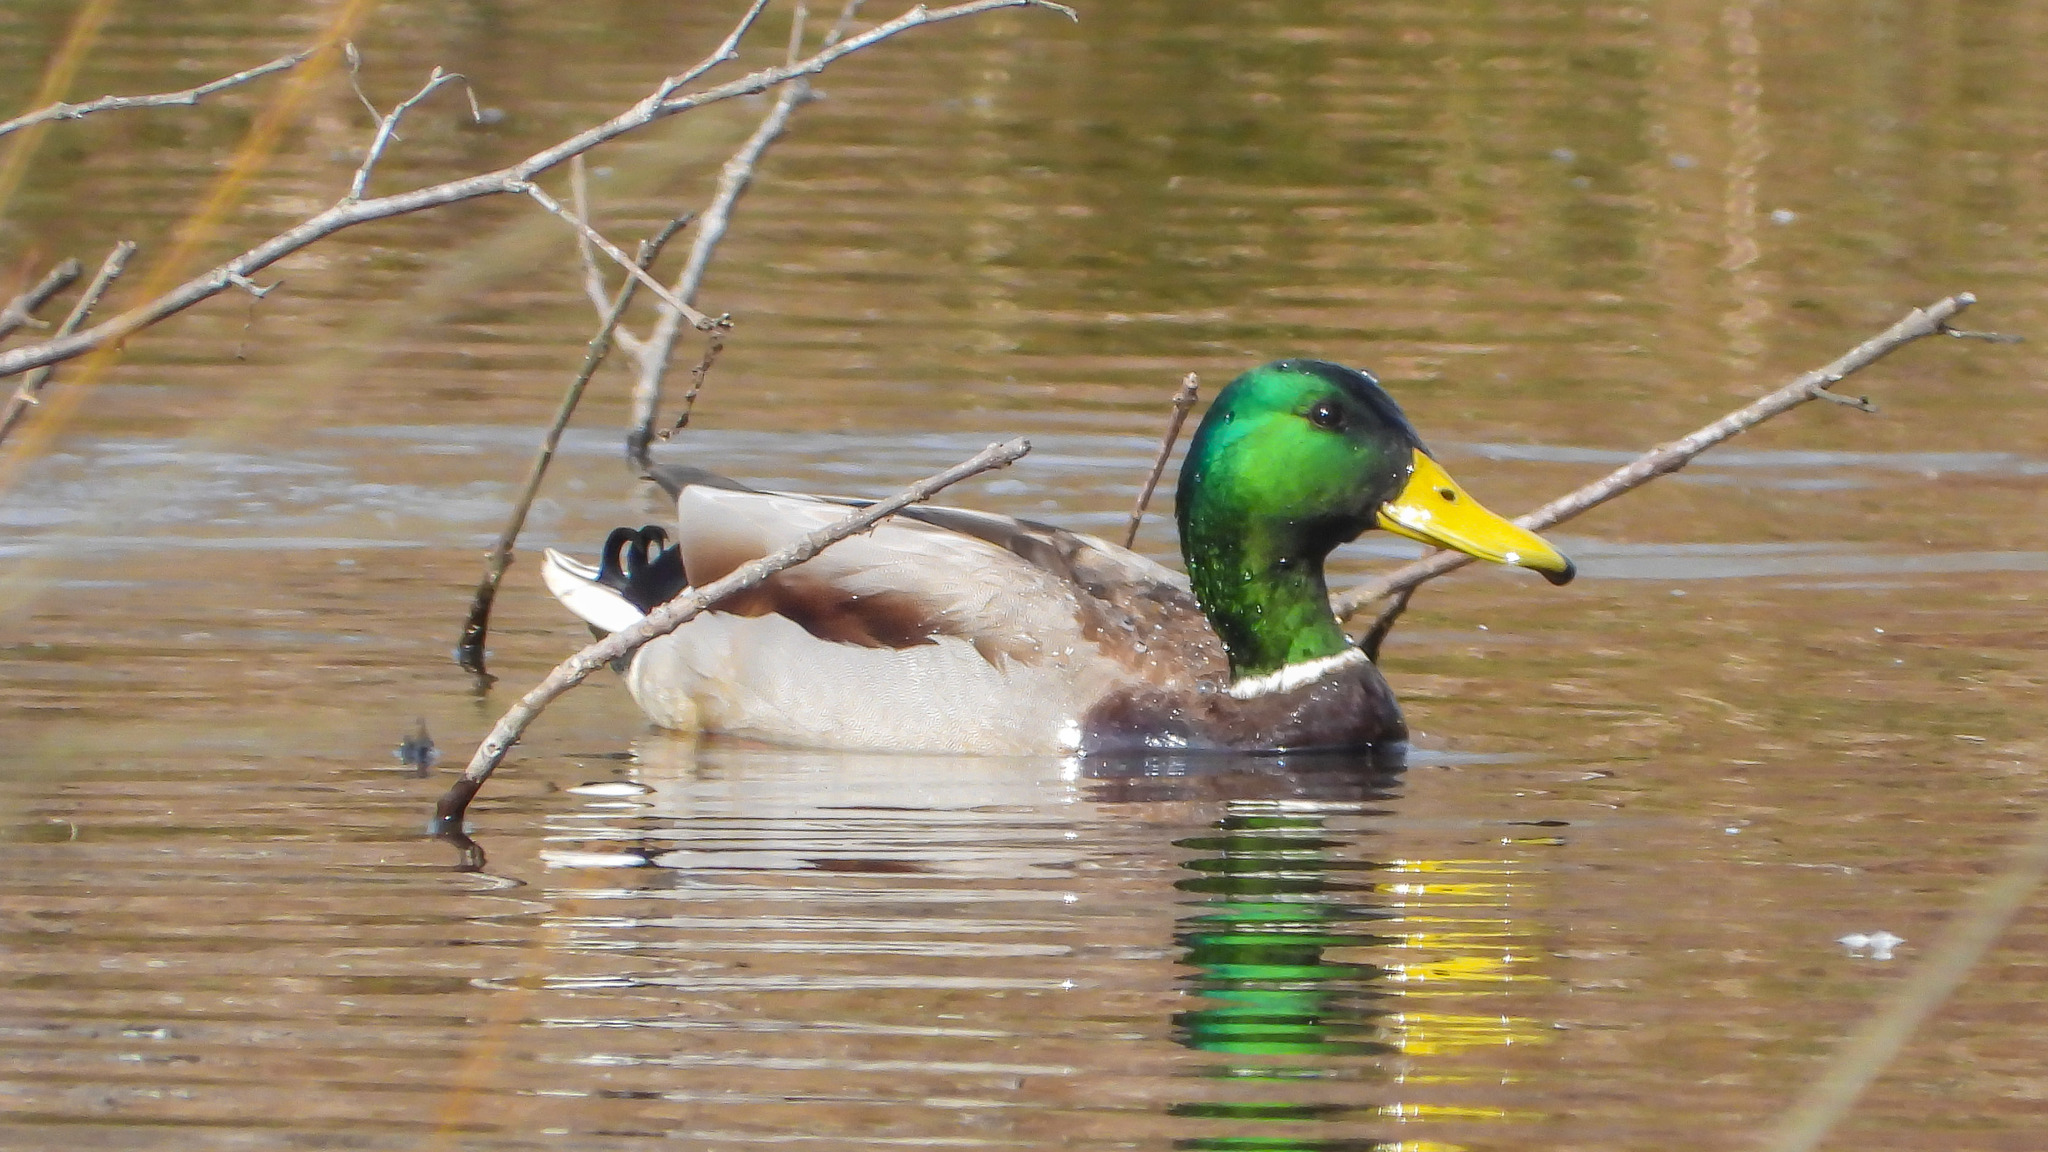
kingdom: Animalia
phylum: Chordata
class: Aves
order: Anseriformes
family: Anatidae
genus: Anas
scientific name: Anas platyrhynchos
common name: Mallard
